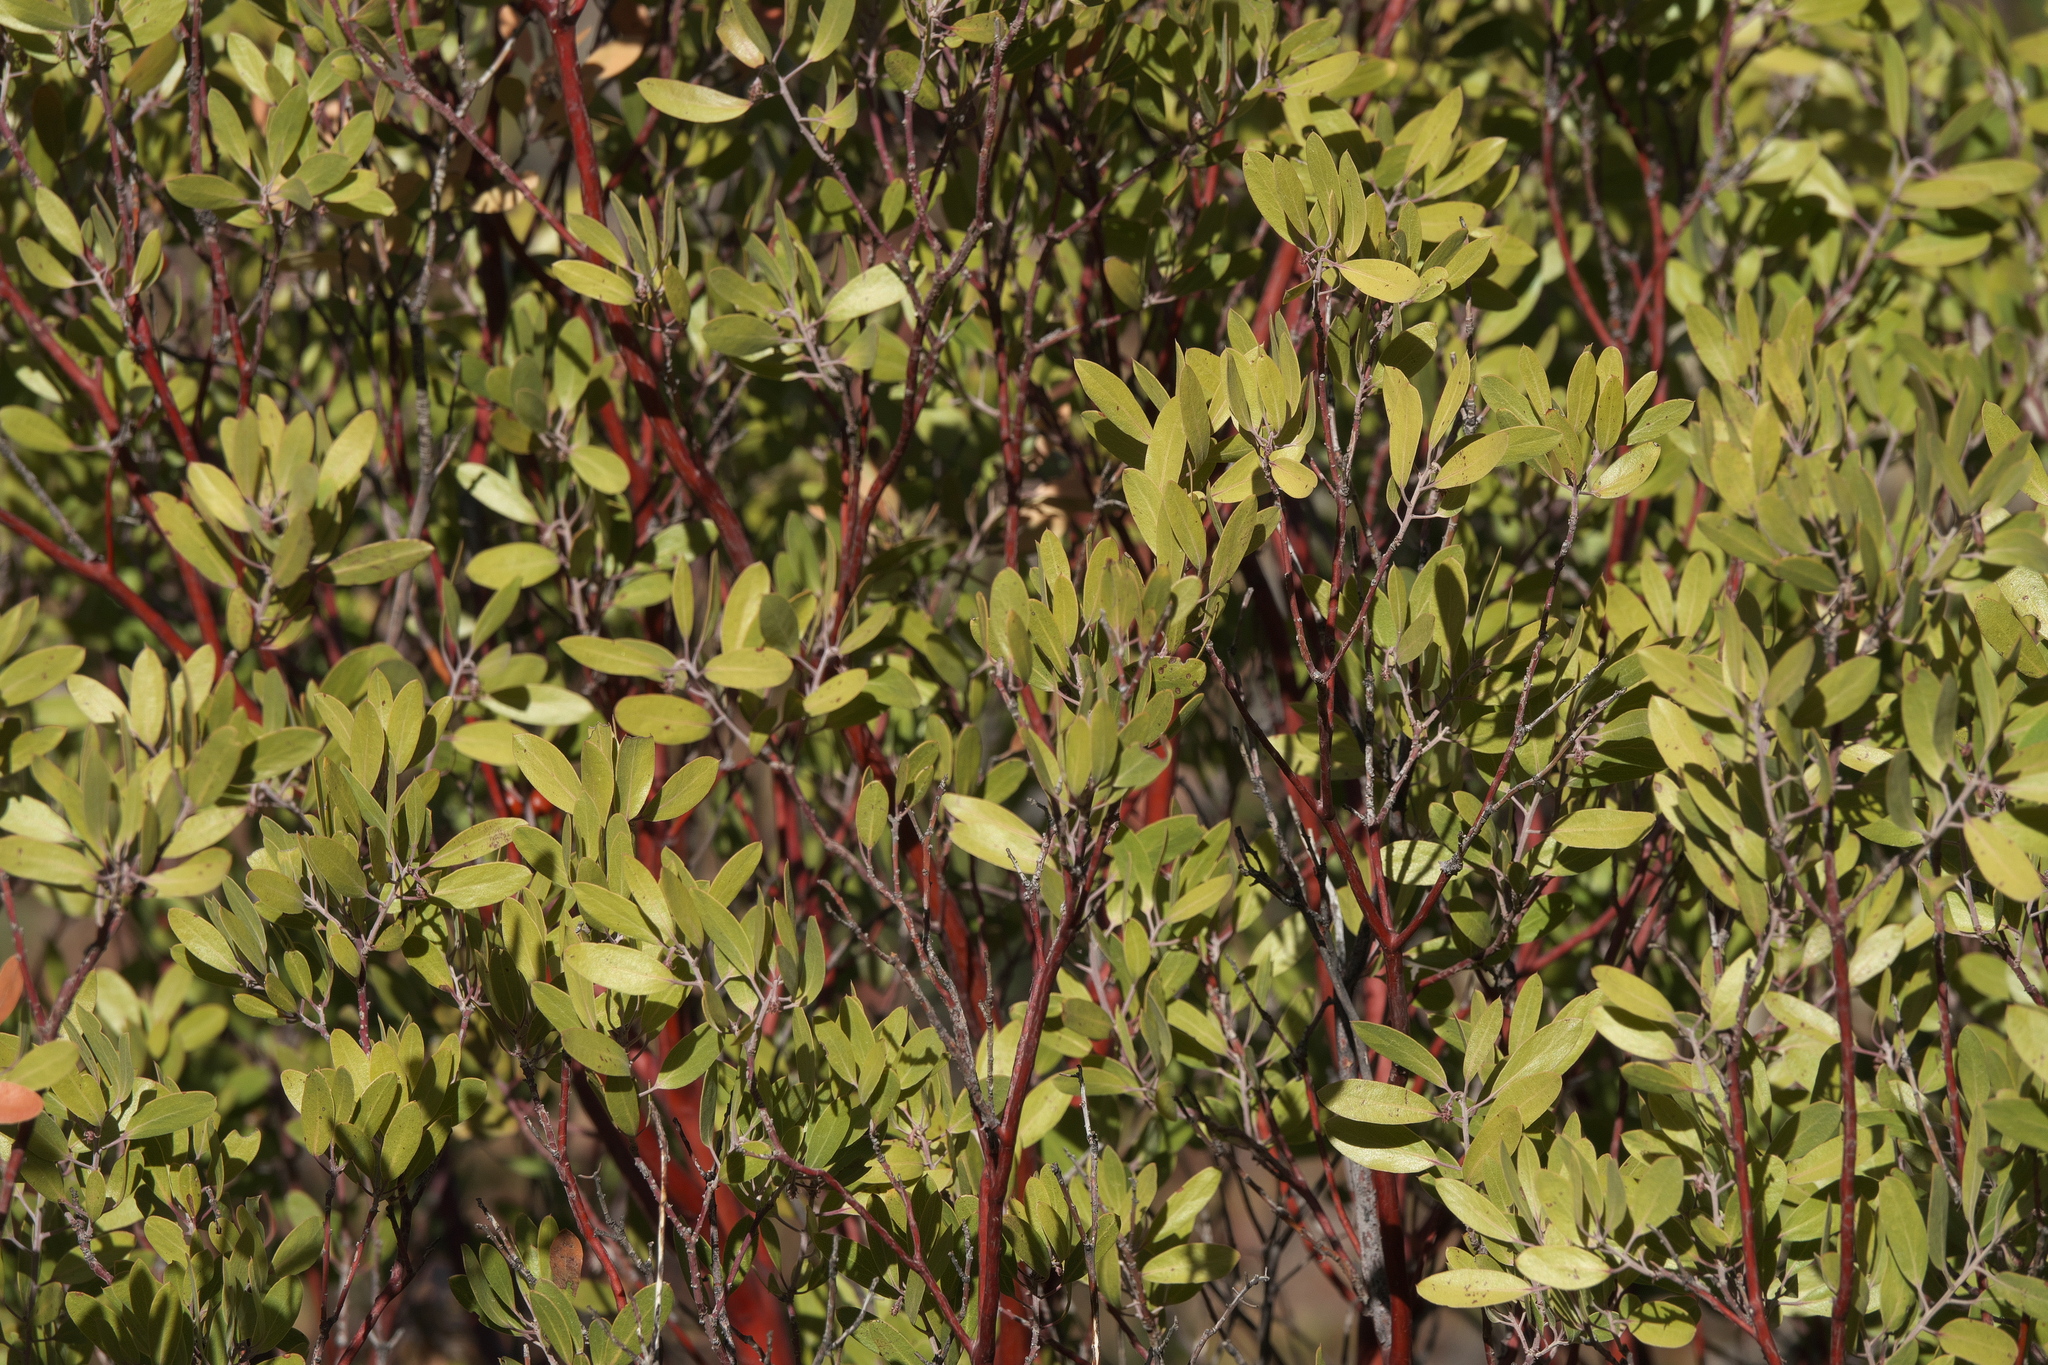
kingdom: Plantae
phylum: Tracheophyta
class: Magnoliopsida
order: Ericales
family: Ericaceae
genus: Arctostaphylos
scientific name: Arctostaphylos pungens
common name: Mexican manzanita
